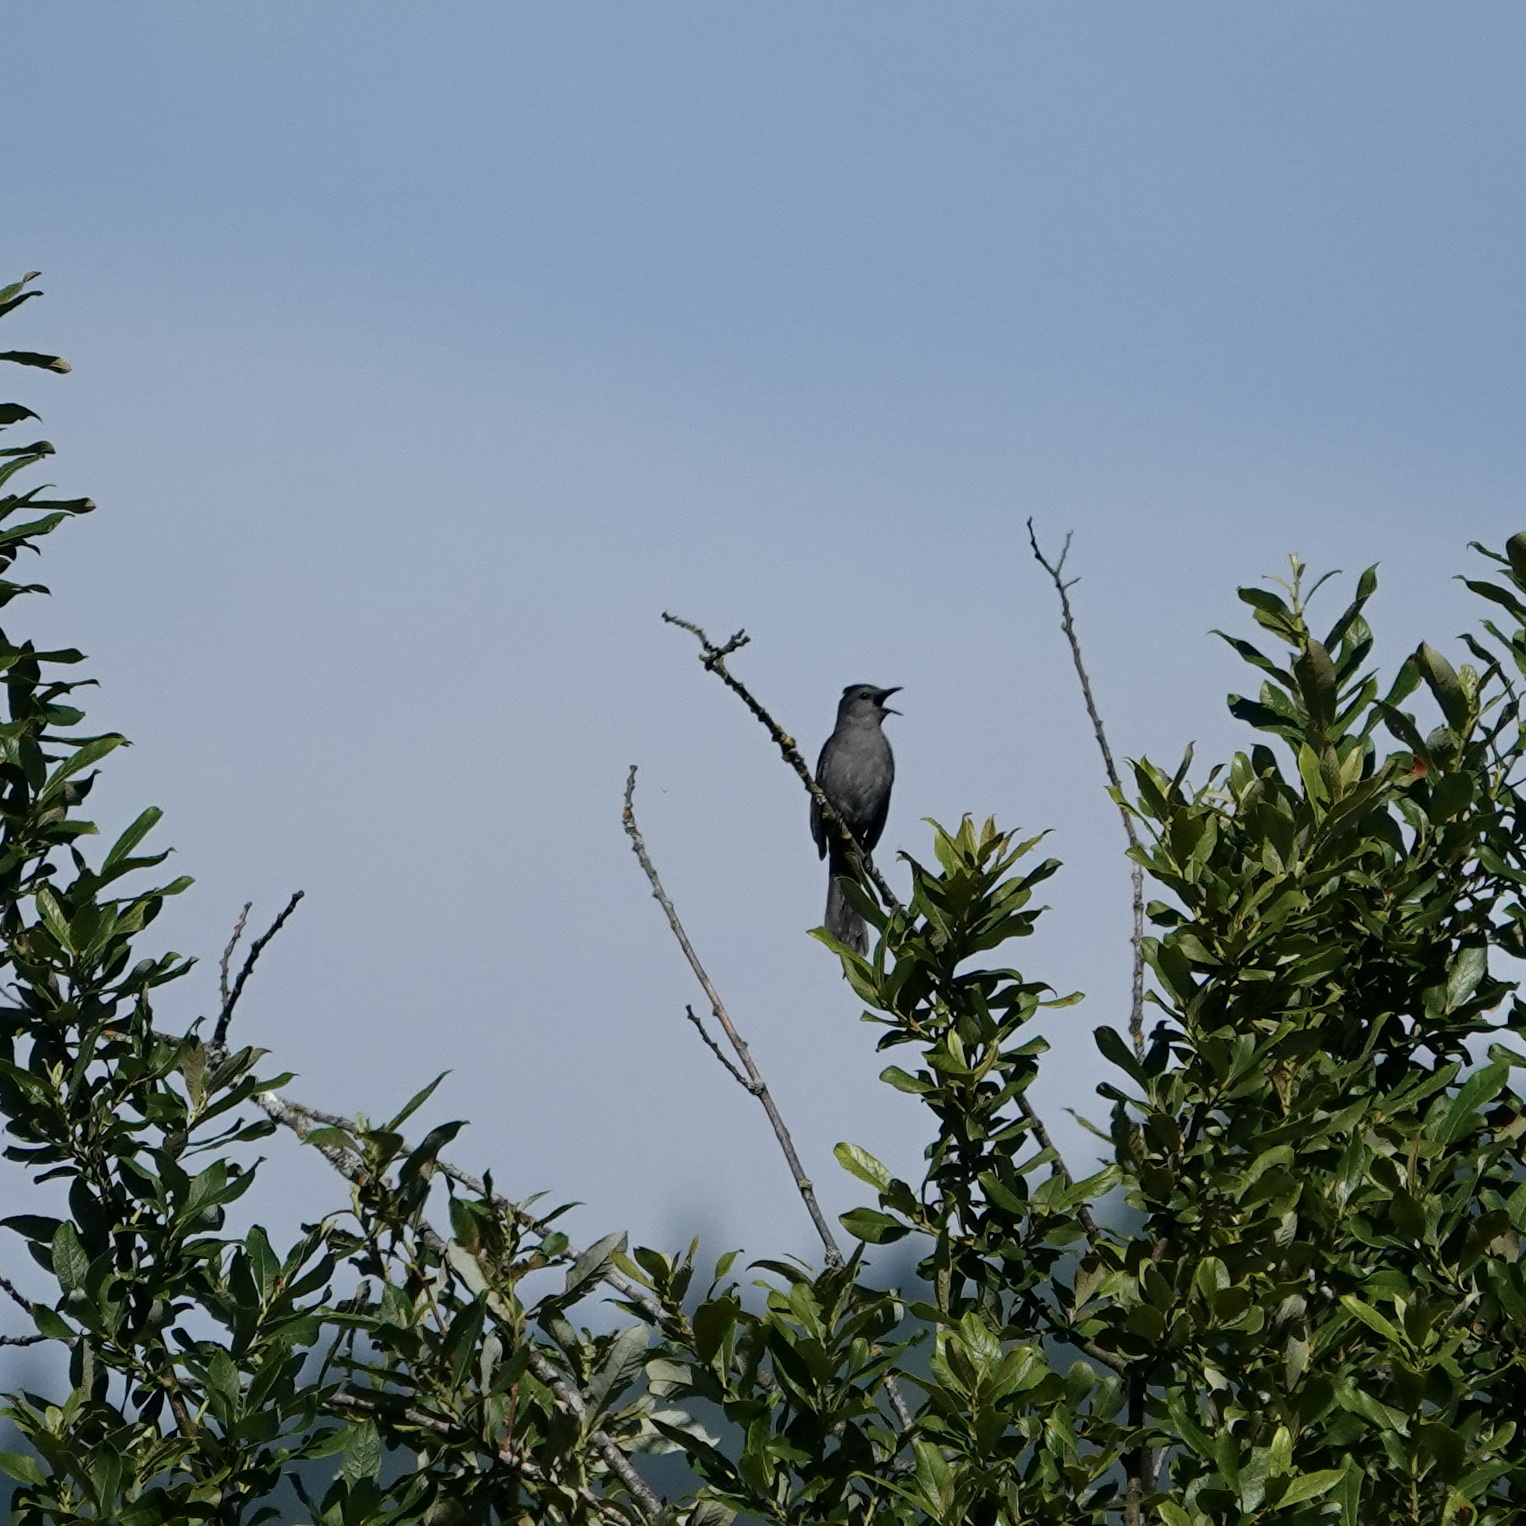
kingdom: Animalia
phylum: Chordata
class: Aves
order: Passeriformes
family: Mimidae
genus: Dumetella
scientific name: Dumetella carolinensis
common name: Gray catbird
